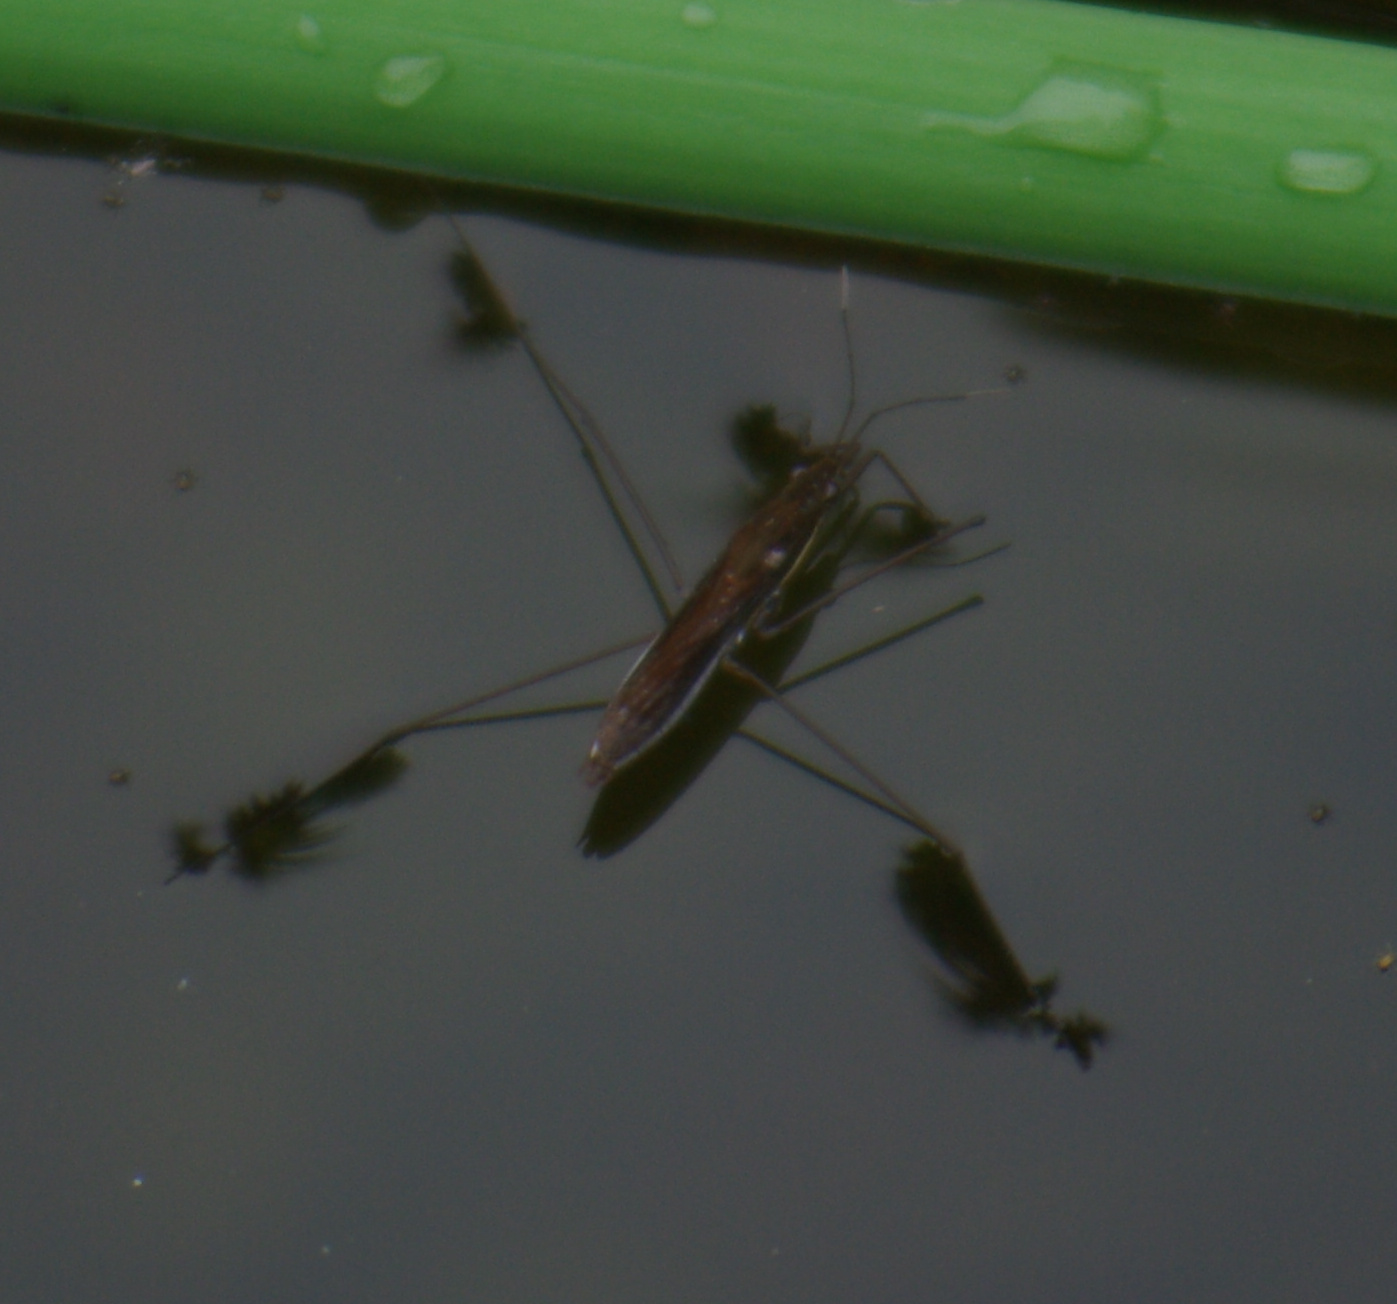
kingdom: Animalia
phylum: Arthropoda
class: Insecta
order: Hemiptera
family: Gerridae
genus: Limnoporus
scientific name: Limnoporus dissortis
